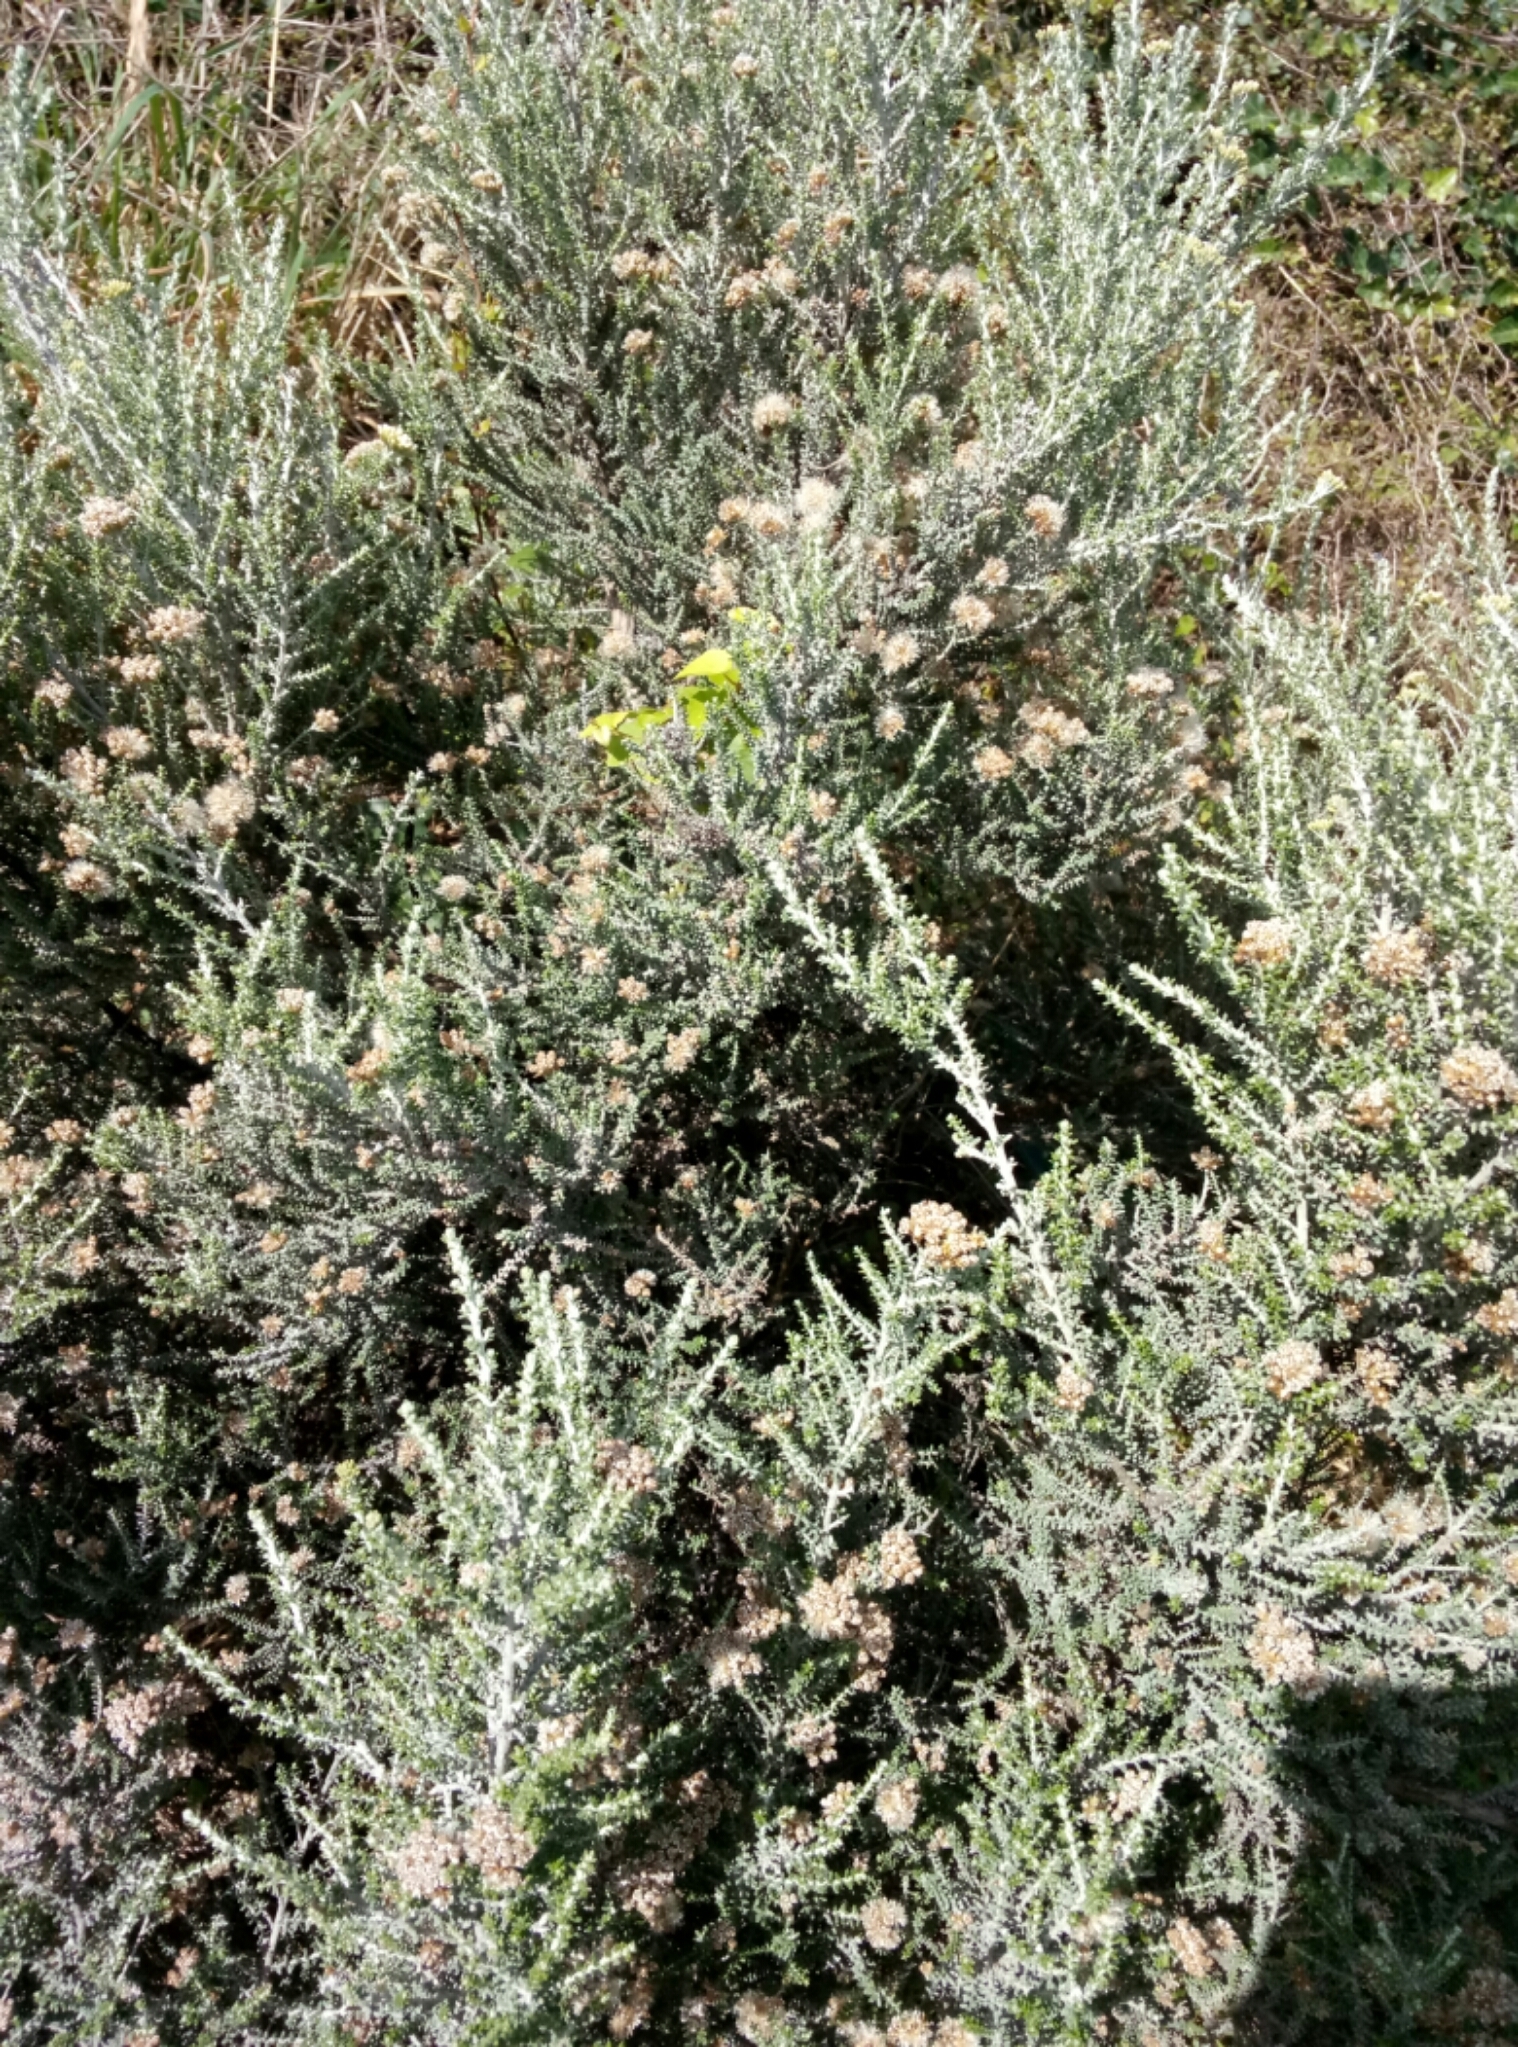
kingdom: Plantae
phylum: Tracheophyta
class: Magnoliopsida
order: Asterales
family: Asteraceae
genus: Ozothamnus
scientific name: Ozothamnus leptophyllus
